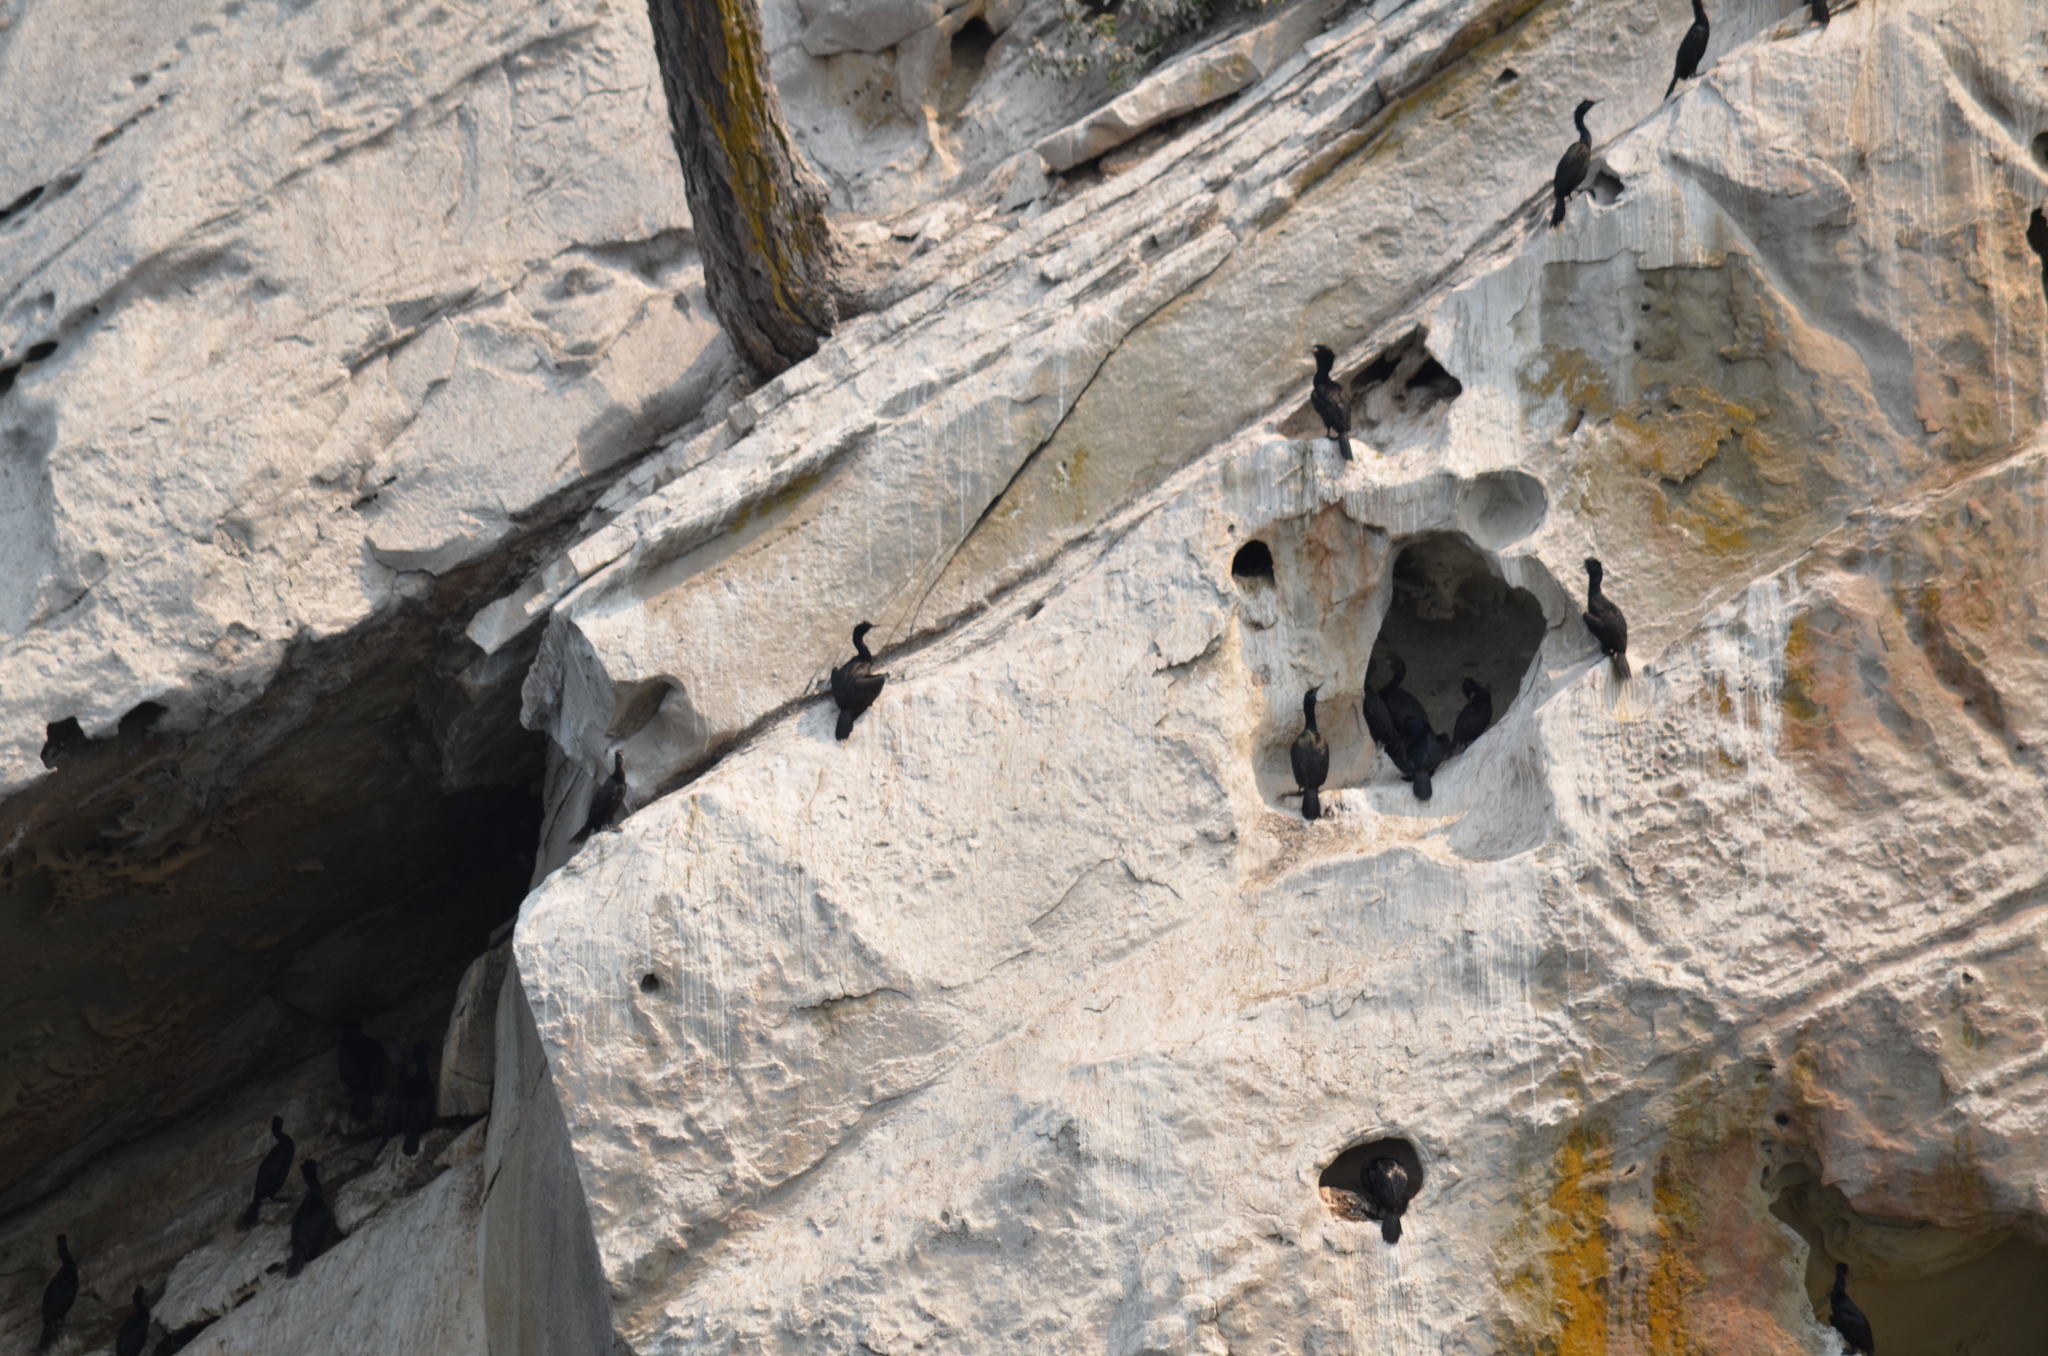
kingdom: Animalia
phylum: Chordata
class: Aves
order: Suliformes
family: Phalacrocoracidae
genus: Phalacrocorax
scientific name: Phalacrocorax pelagicus
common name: Pelagic cormorant
